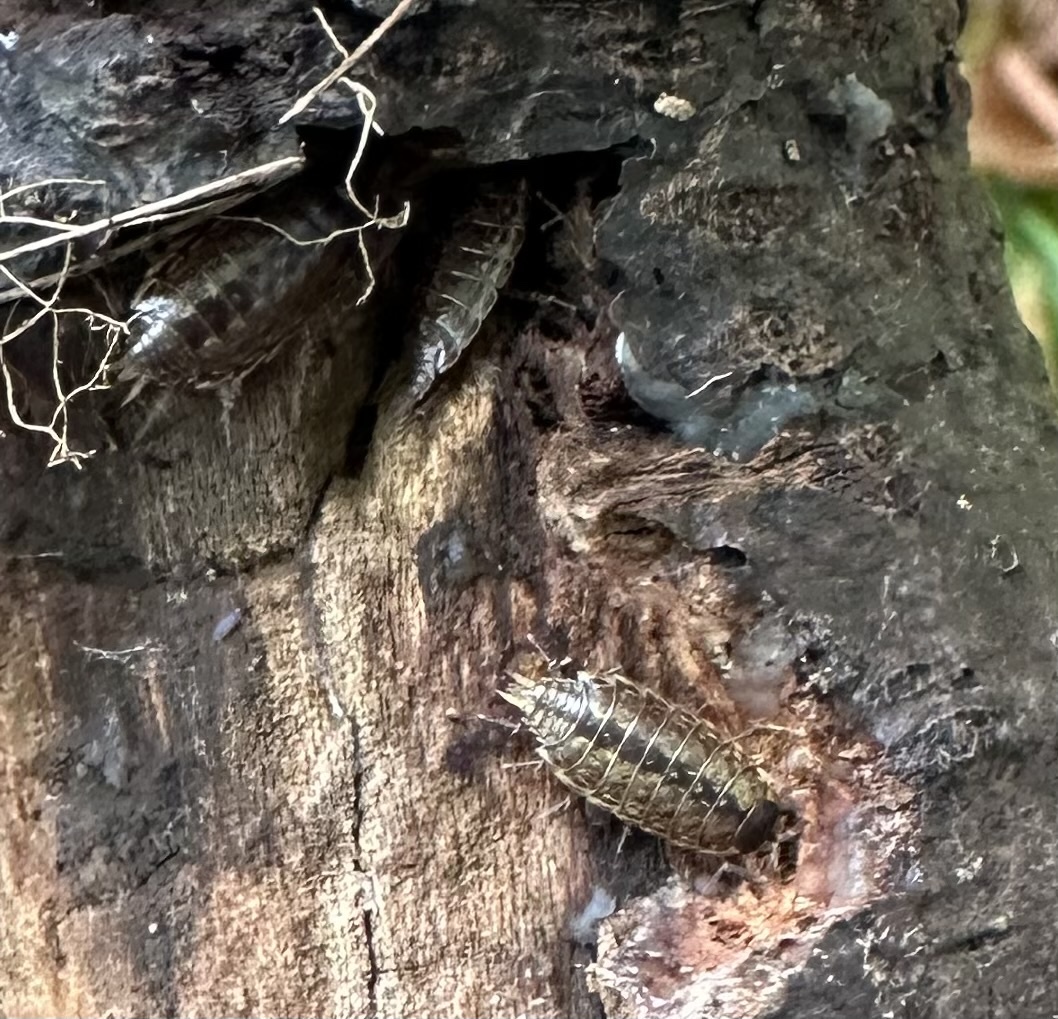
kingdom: Animalia
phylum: Arthropoda
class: Malacostraca
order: Isopoda
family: Philosciidae
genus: Philoscia
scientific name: Philoscia muscorum
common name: Common striped woodlouse
